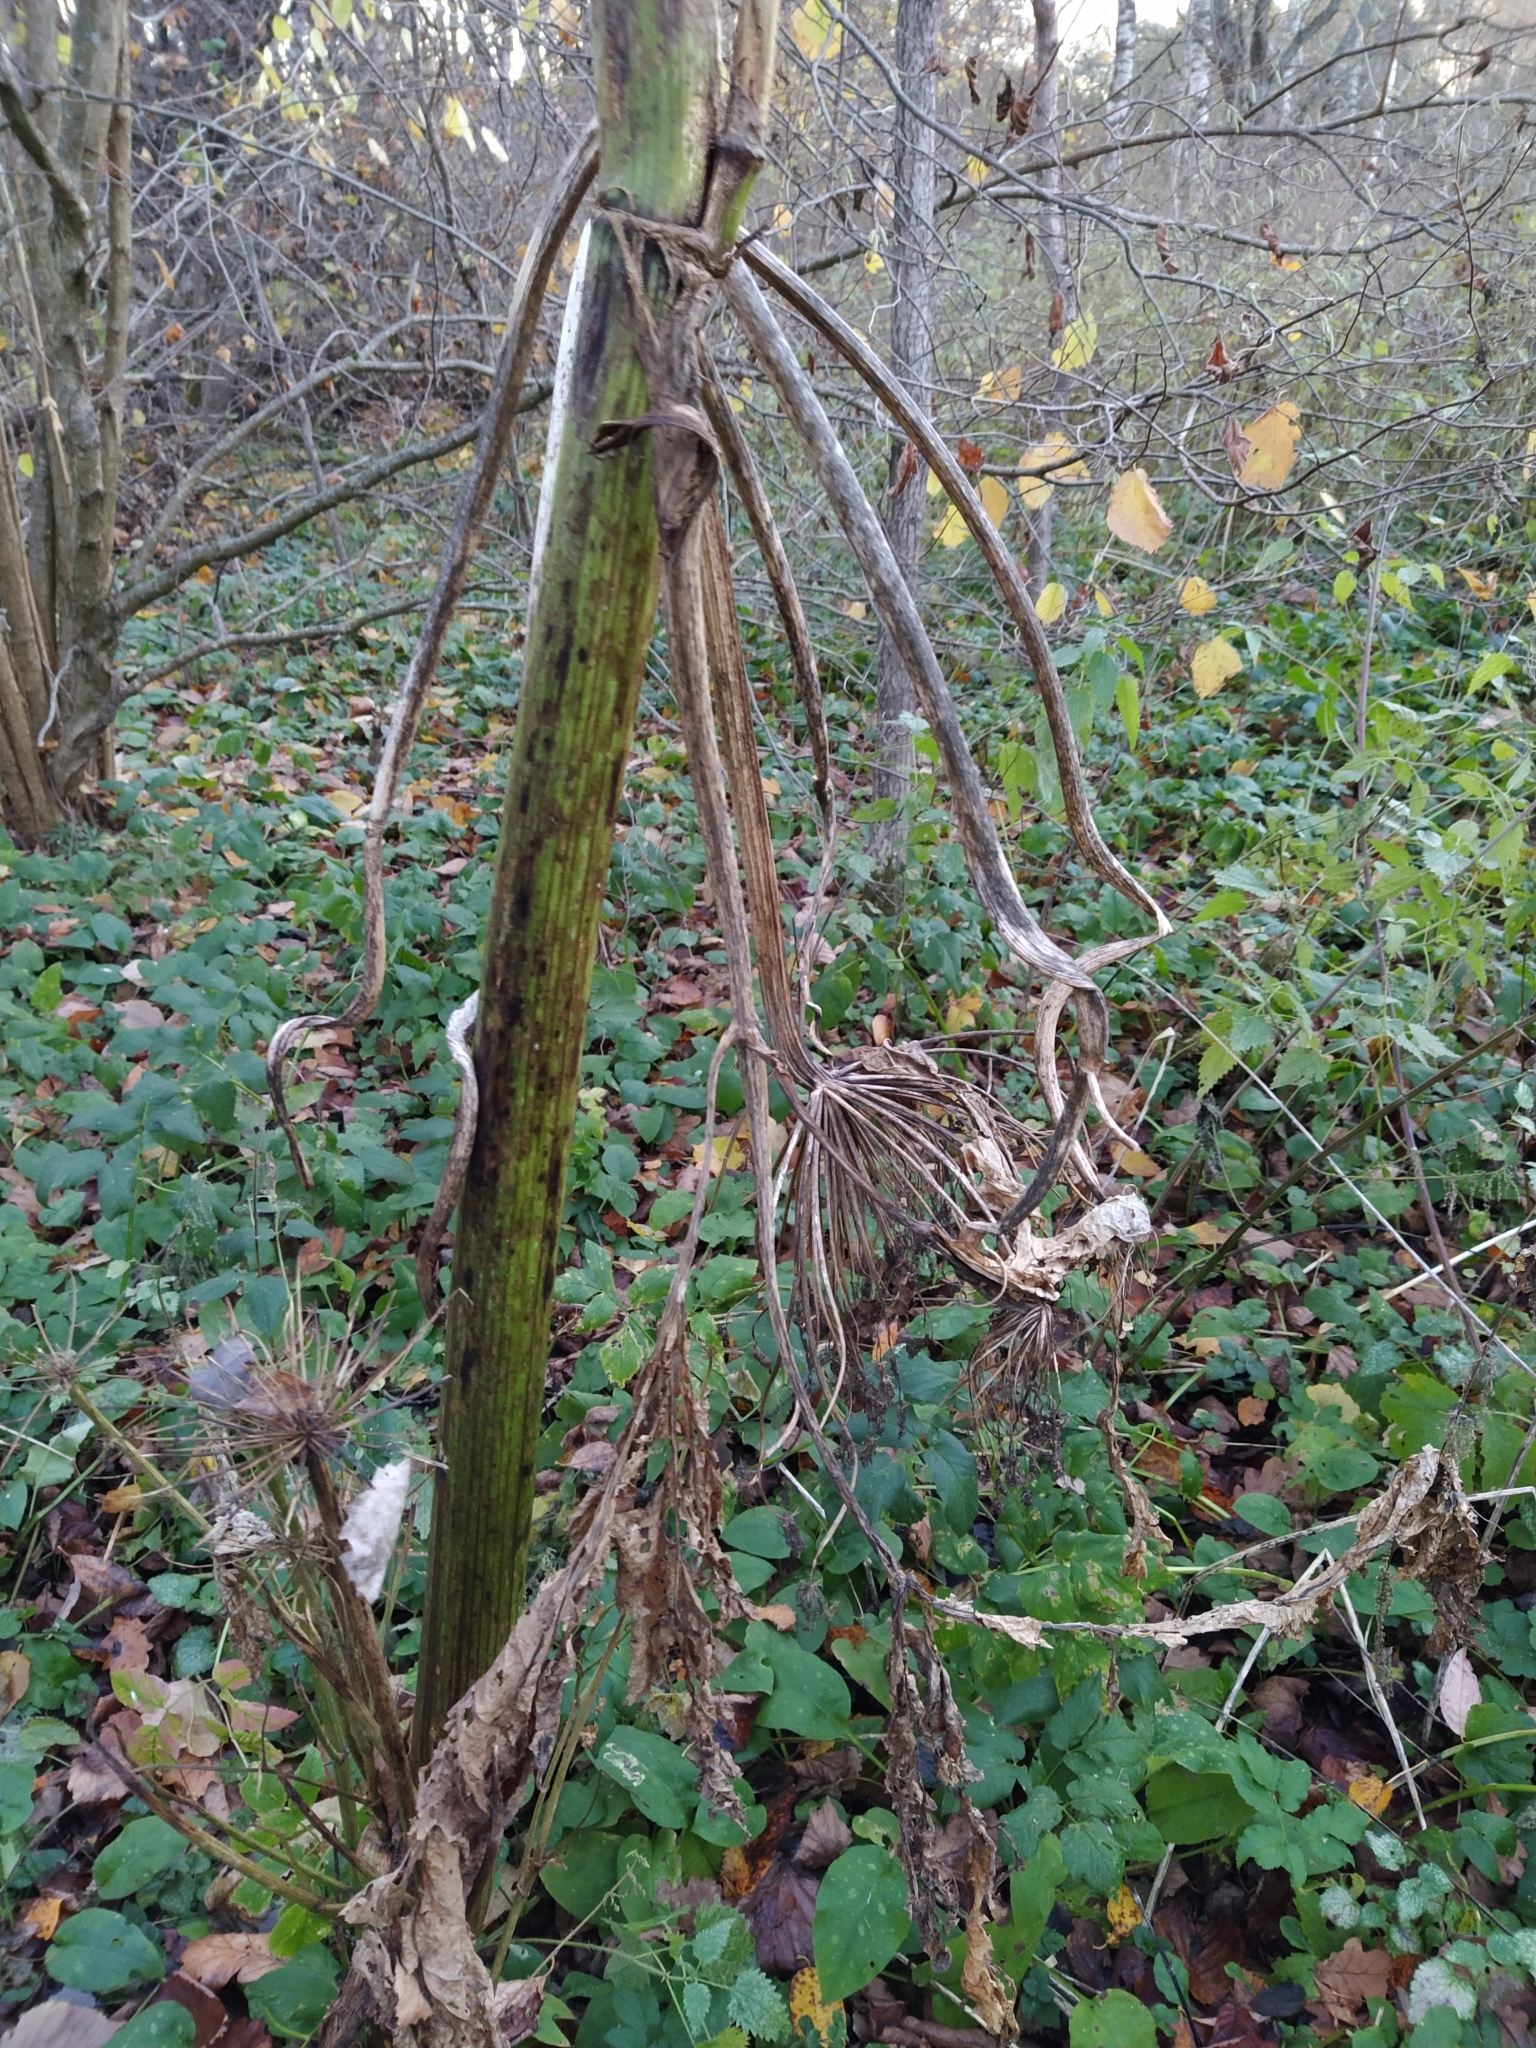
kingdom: Plantae
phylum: Tracheophyta
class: Magnoliopsida
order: Apiales
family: Apiaceae
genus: Heracleum
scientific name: Heracleum sosnowskyi
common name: Sosnowsky's hogweed
